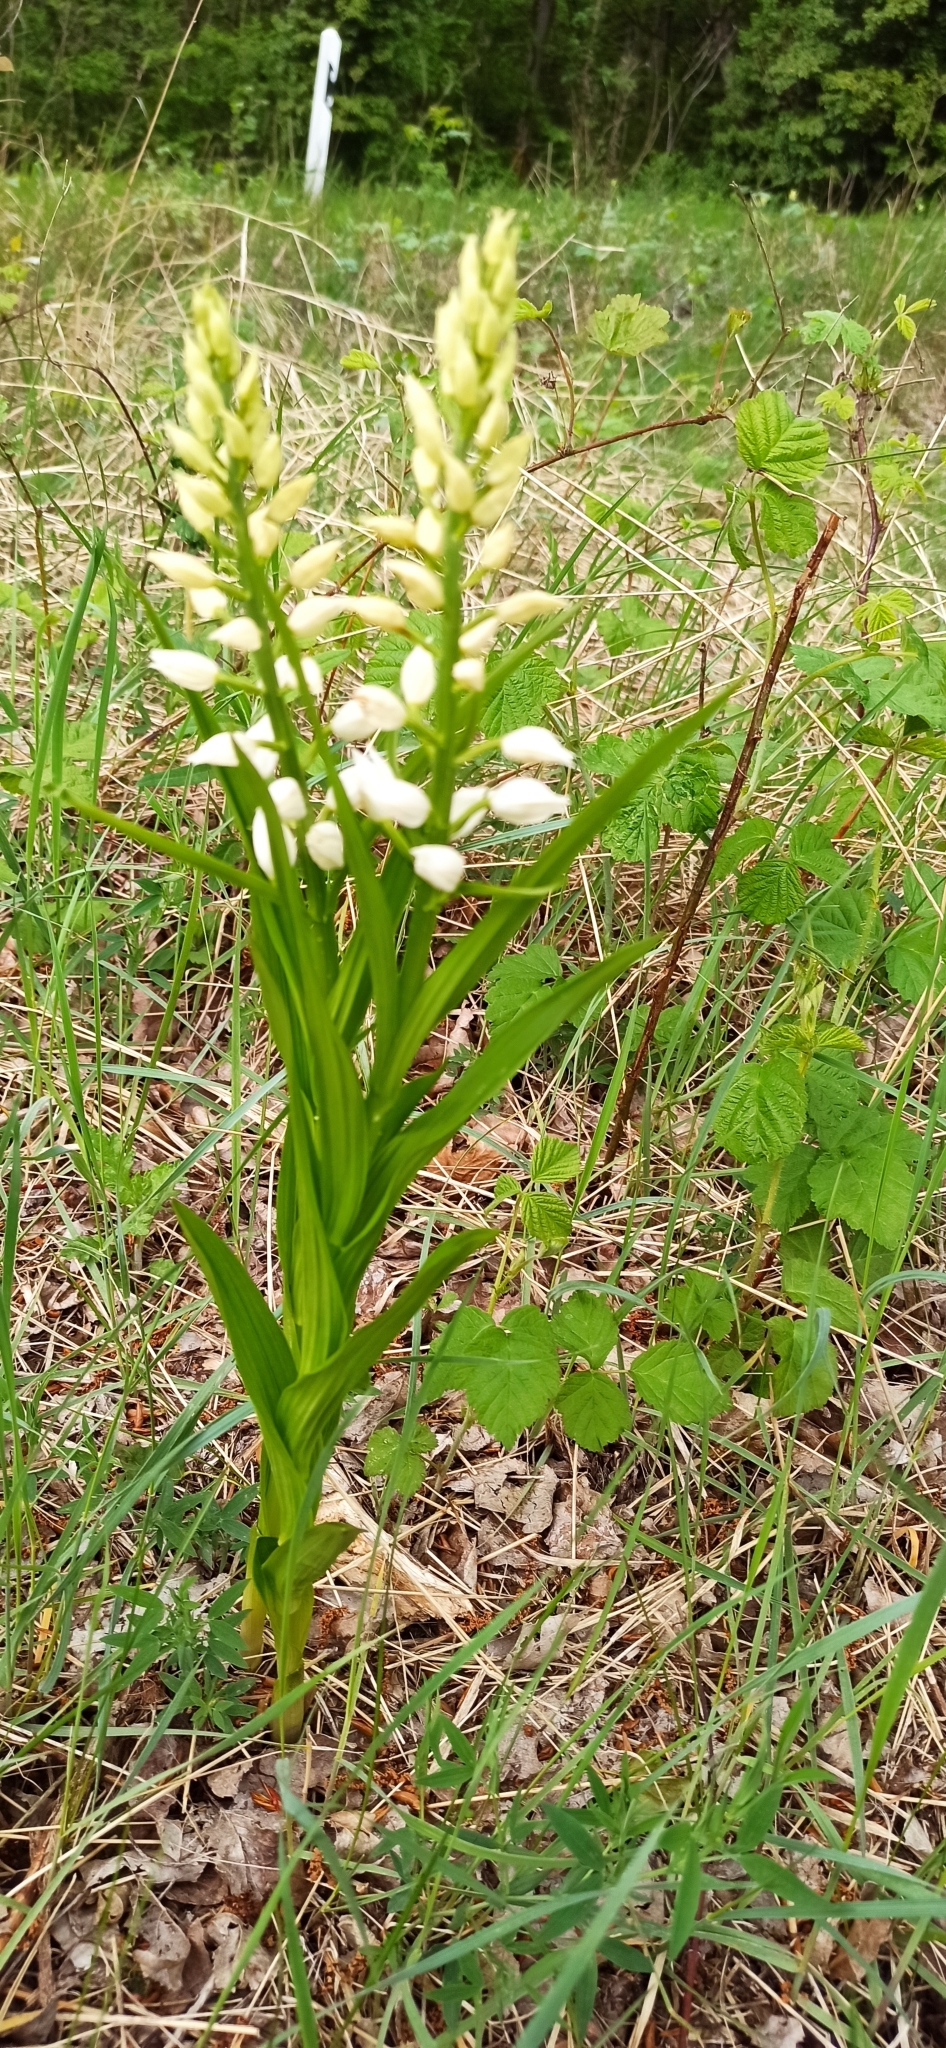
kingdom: Plantae
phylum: Tracheophyta
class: Liliopsida
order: Asparagales
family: Orchidaceae
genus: Cephalanthera
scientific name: Cephalanthera longifolia
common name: Narrow-leaved helleborine
